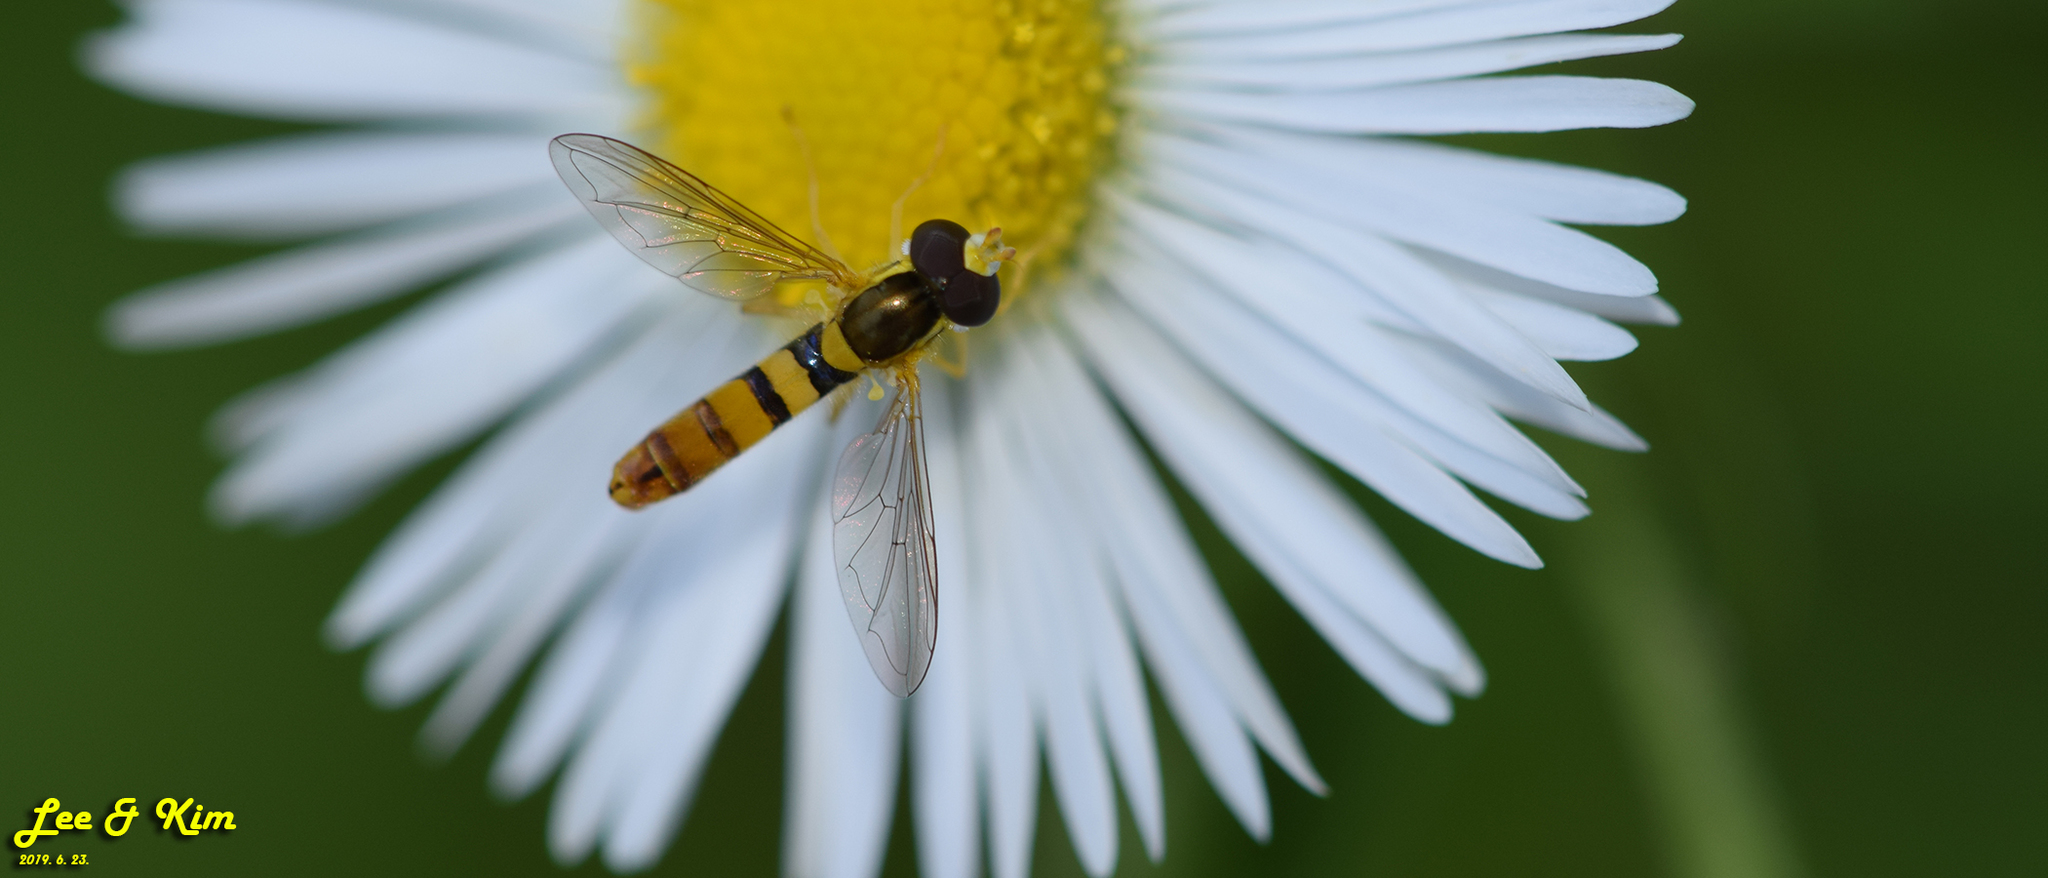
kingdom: Animalia
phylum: Arthropoda
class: Insecta
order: Diptera
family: Syrphidae
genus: Sphaerophoria
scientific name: Sphaerophoria scripta
